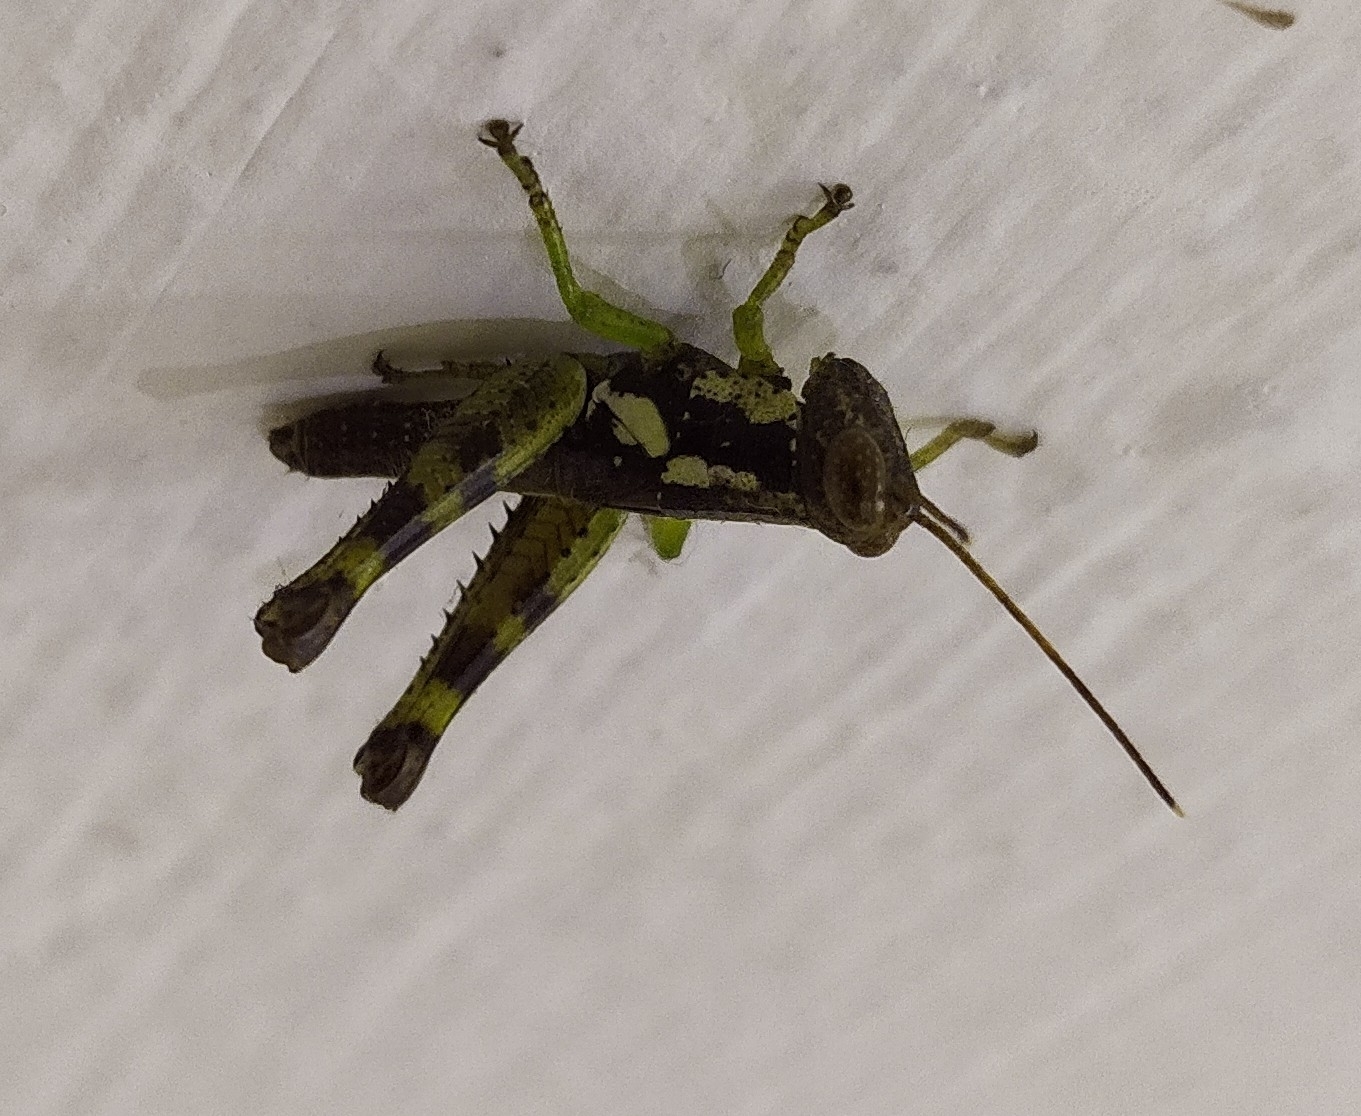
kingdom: Animalia
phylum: Arthropoda
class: Insecta
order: Orthoptera
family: Acrididae
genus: Pirithoicus
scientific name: Pirithoicus ophthalmicus
